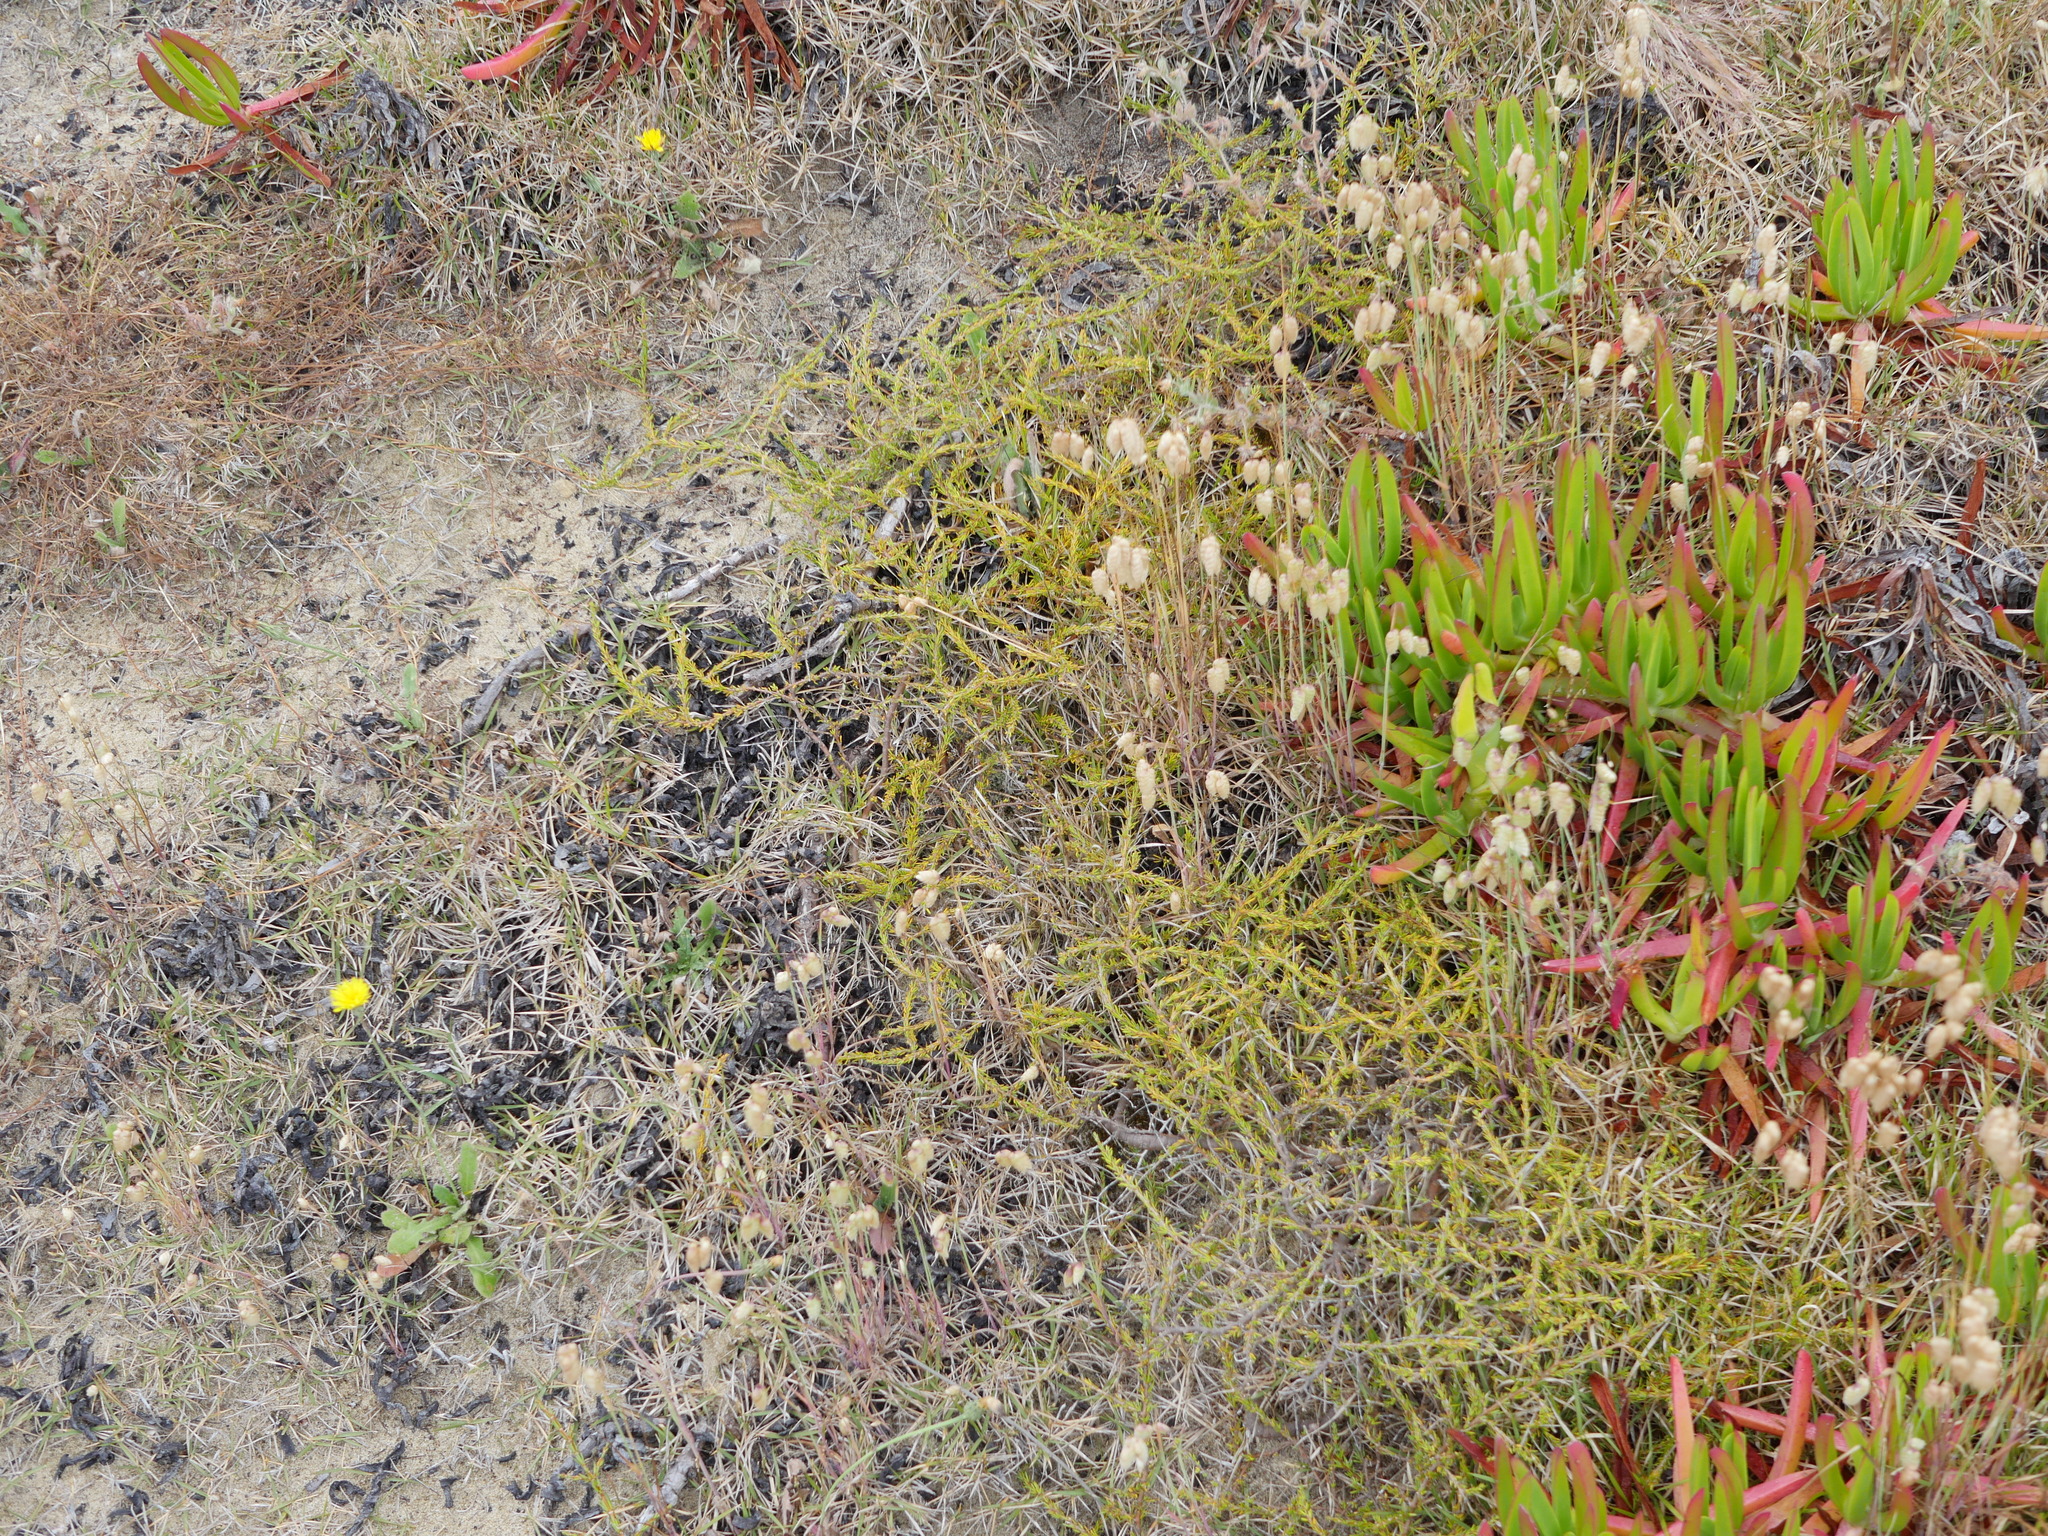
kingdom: Plantae
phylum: Tracheophyta
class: Magnoliopsida
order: Gentianales
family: Rubiaceae
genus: Coprosma
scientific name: Coprosma acerosa
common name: Sand coprosma
